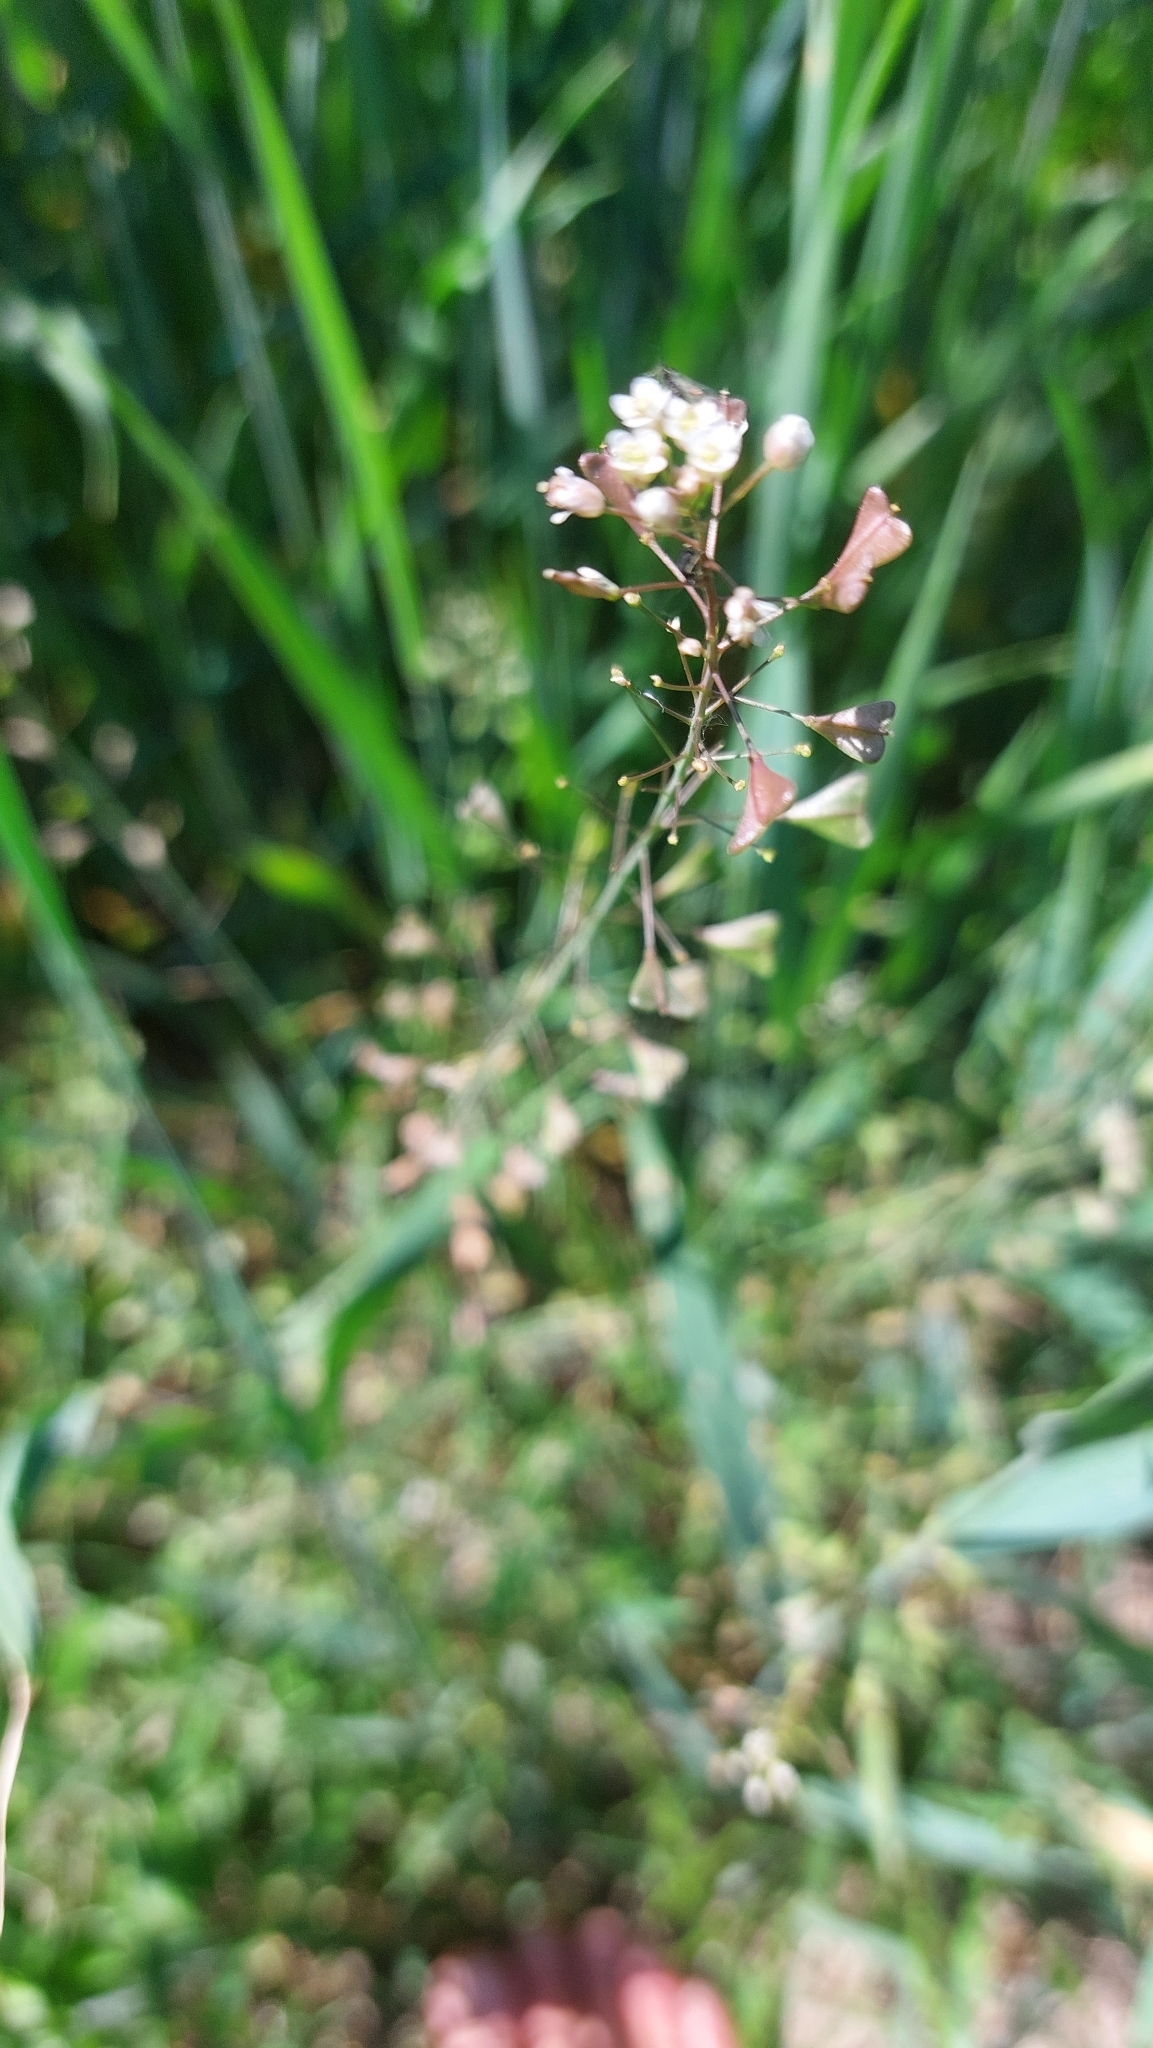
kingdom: Plantae
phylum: Tracheophyta
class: Magnoliopsida
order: Brassicales
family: Brassicaceae
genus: Capsella
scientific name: Capsella bursa-pastoris
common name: Shepherd's purse
